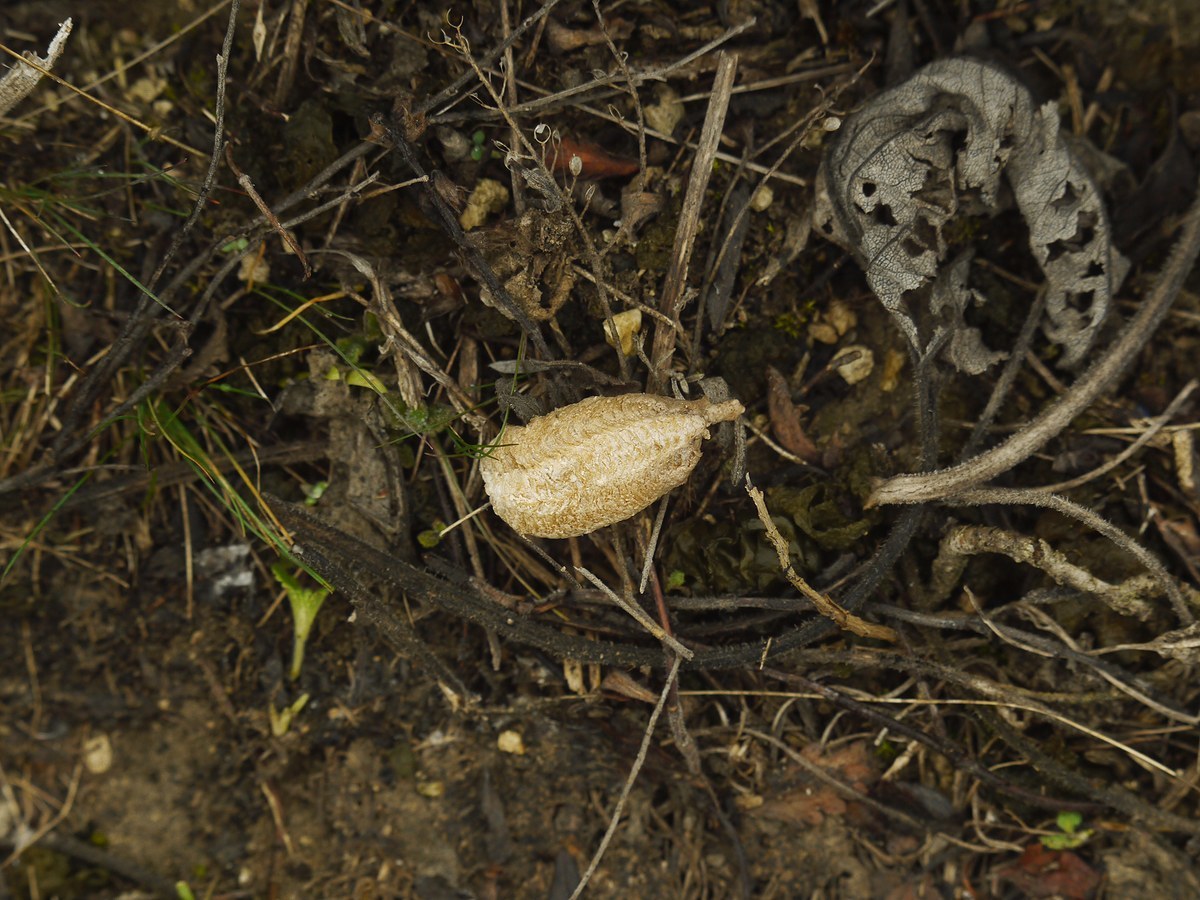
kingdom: Animalia
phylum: Arthropoda
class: Insecta
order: Mantodea
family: Mantidae
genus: Mantis
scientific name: Mantis religiosa
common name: Praying mantis
